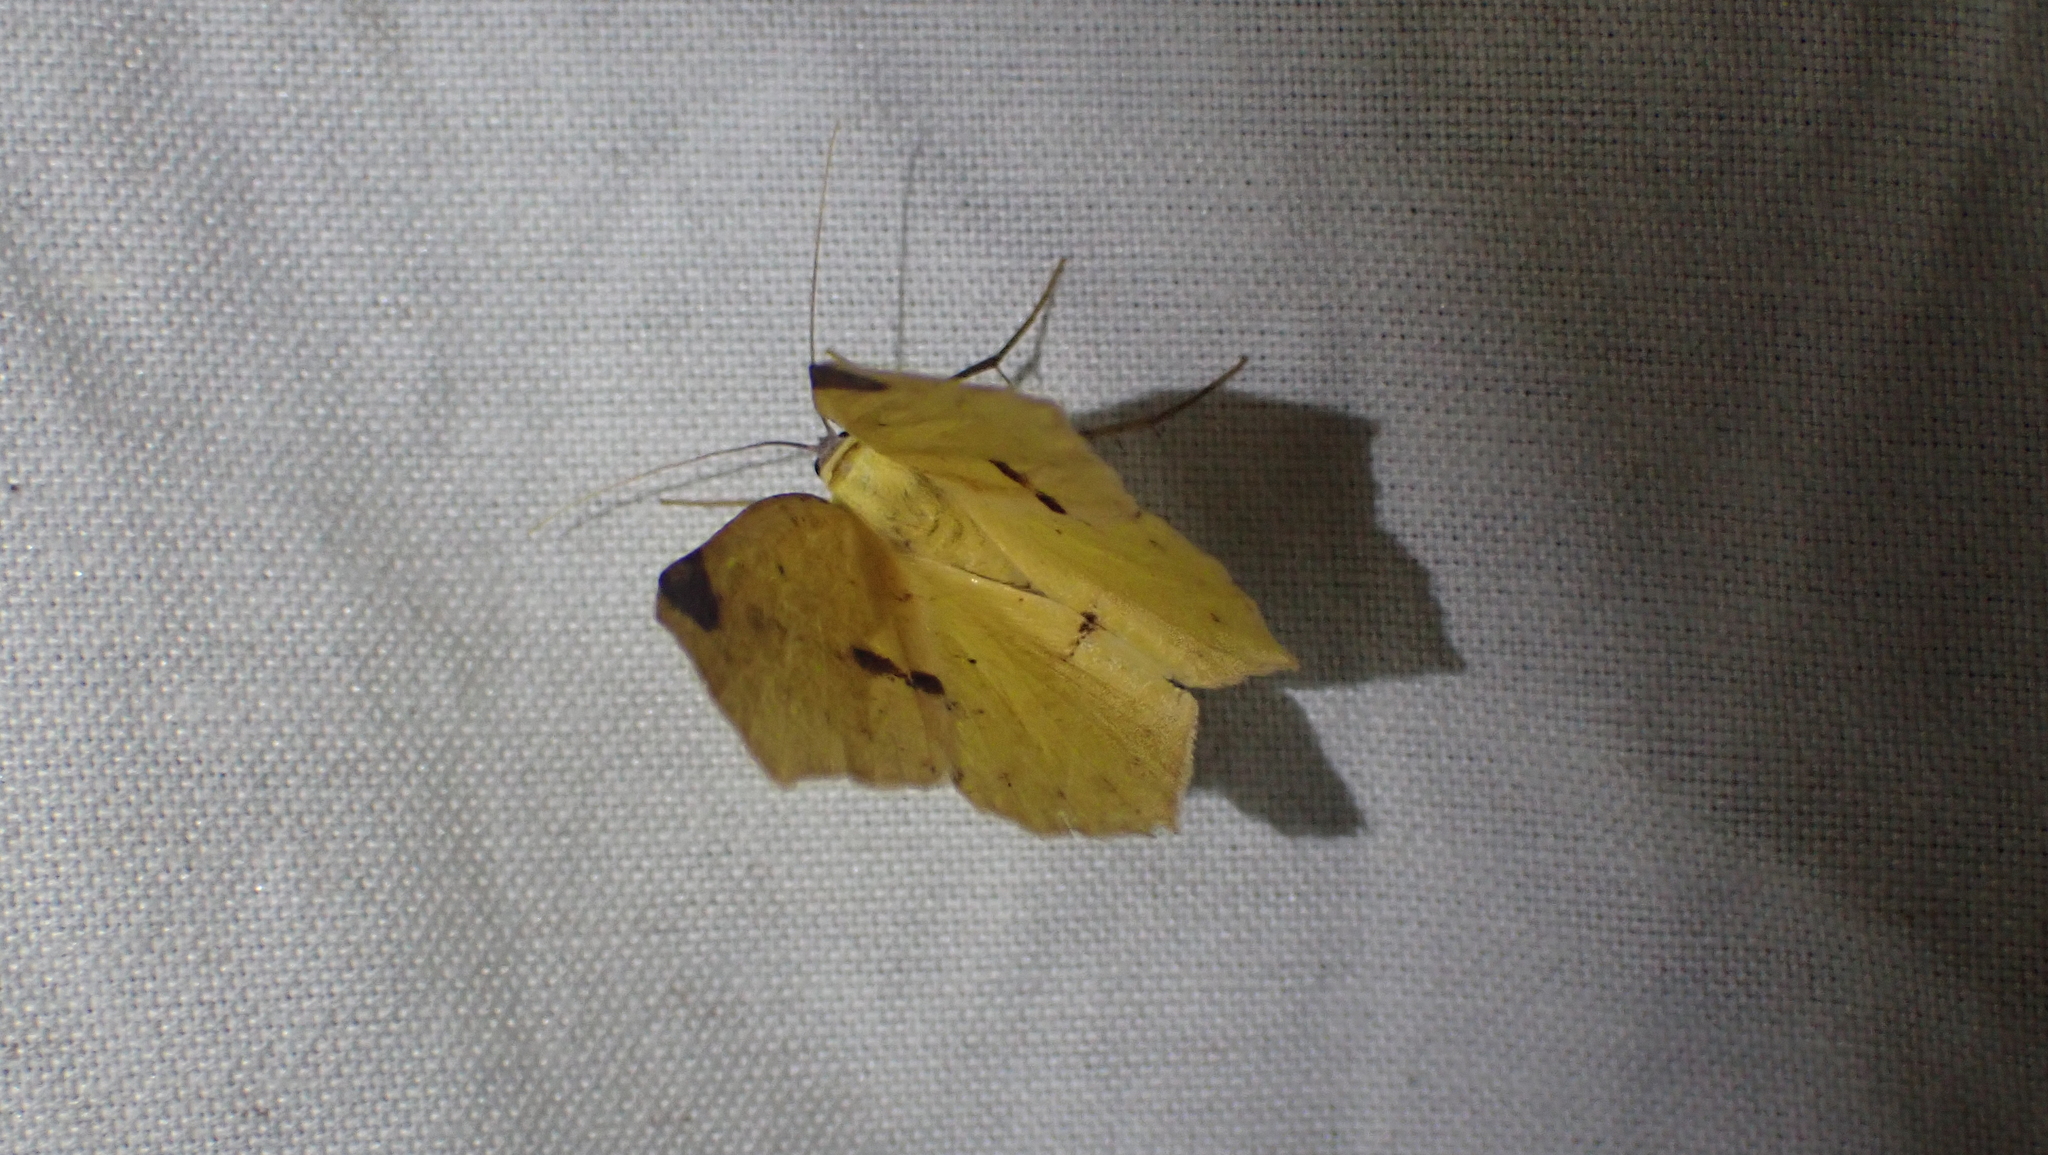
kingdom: Animalia
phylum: Arthropoda
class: Insecta
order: Lepidoptera
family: Geometridae
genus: Antepione
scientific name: Antepione thisoaria
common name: Variable antipione
